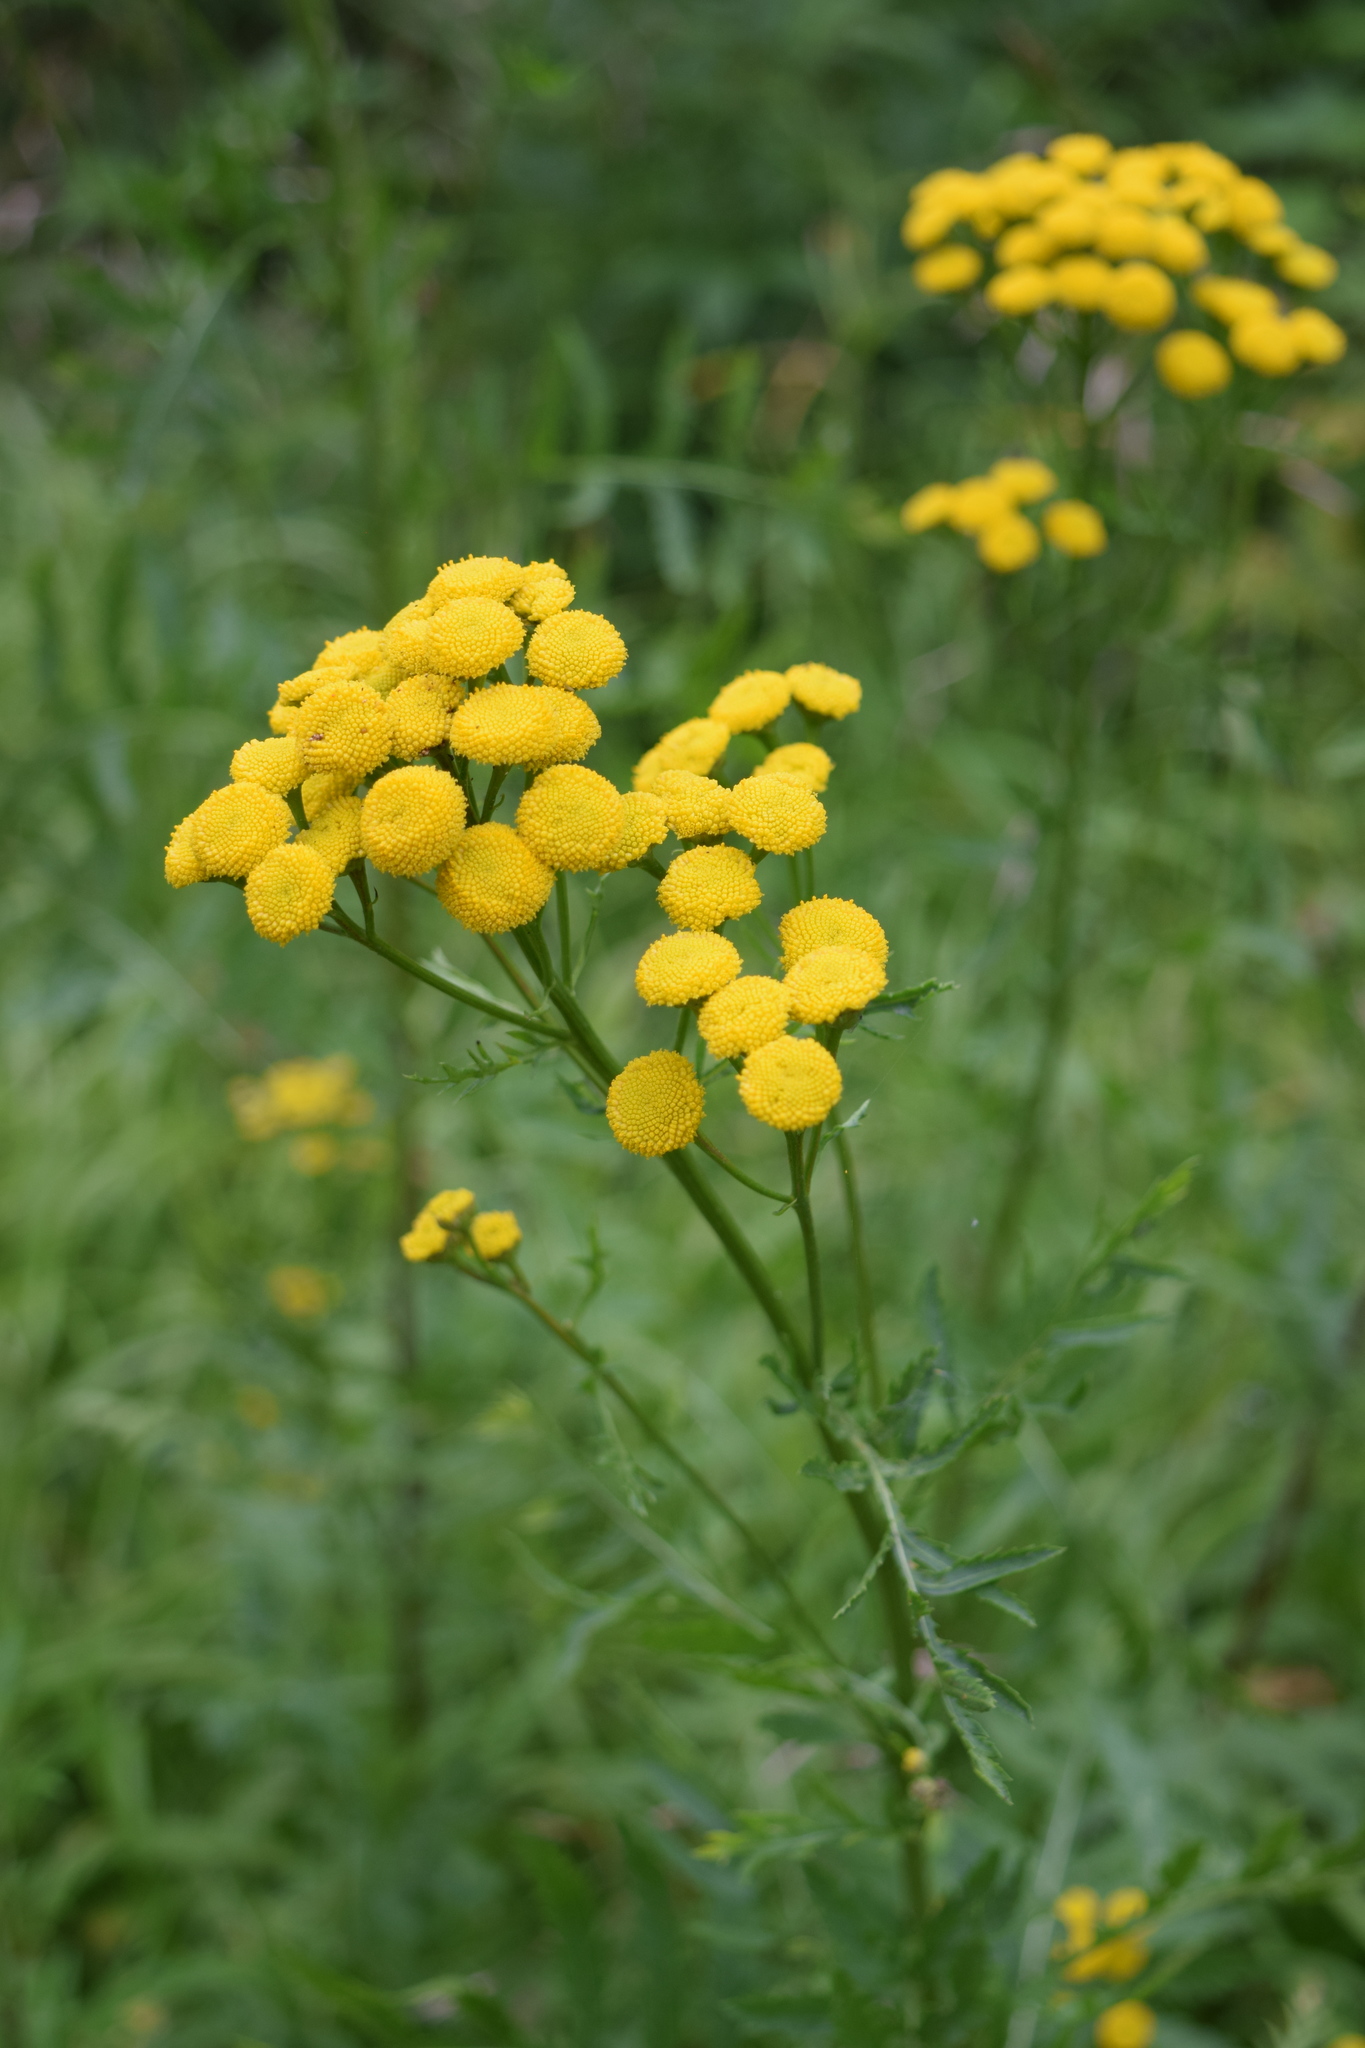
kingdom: Plantae
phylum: Tracheophyta
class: Magnoliopsida
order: Asterales
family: Asteraceae
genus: Tanacetum
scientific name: Tanacetum vulgare
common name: Common tansy
